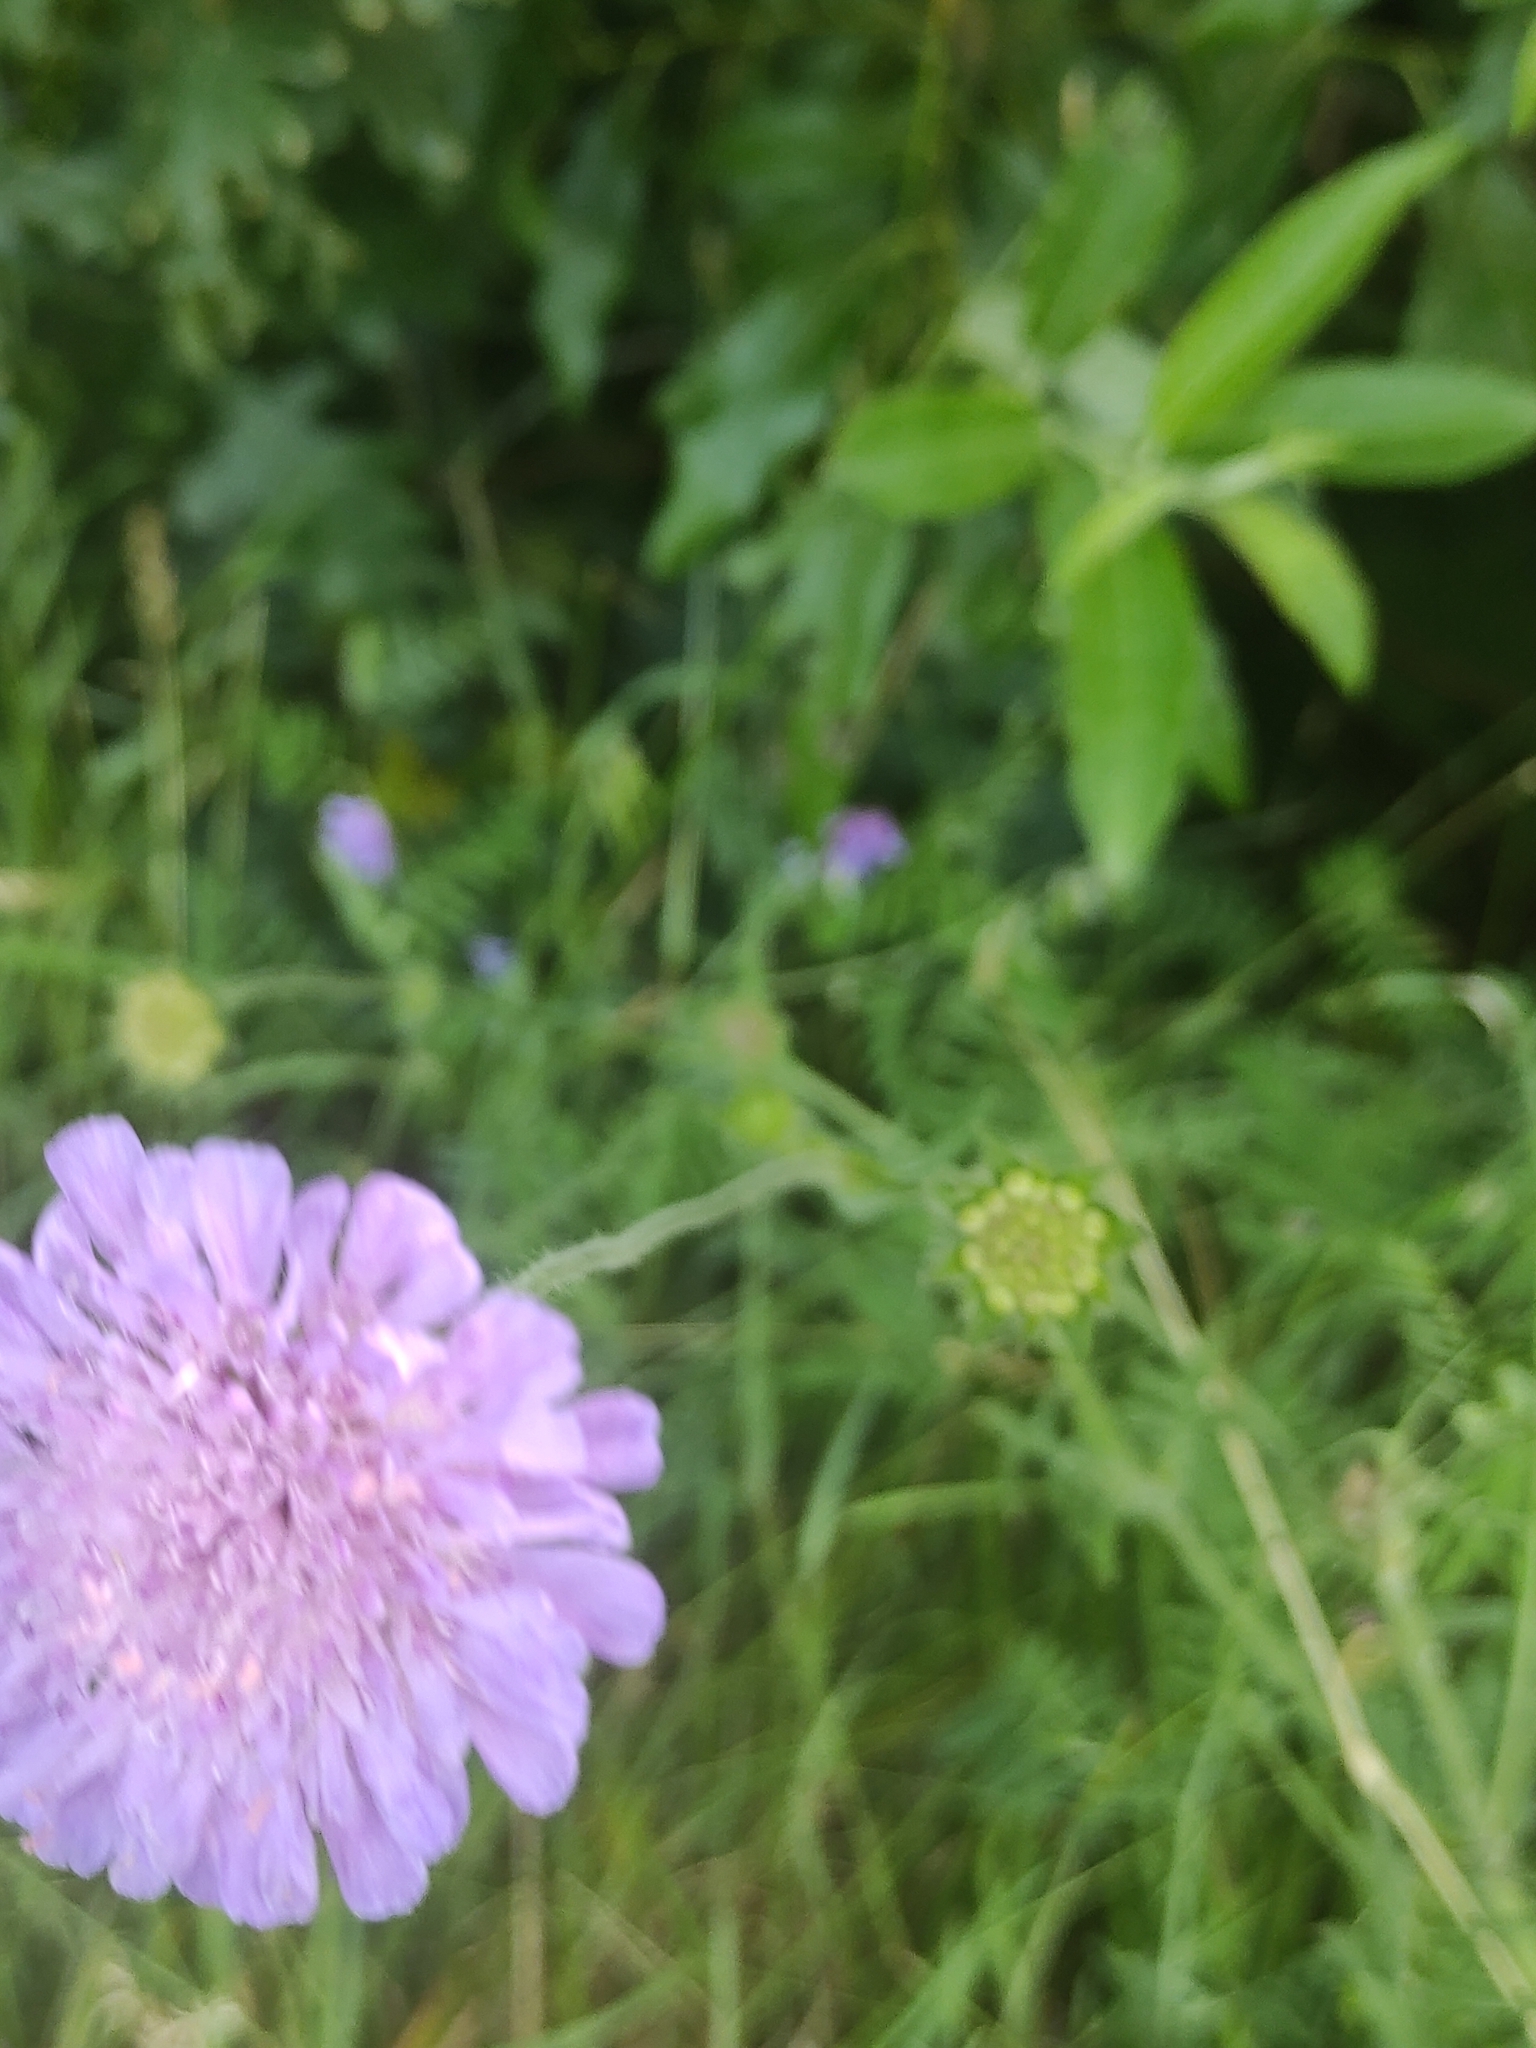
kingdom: Plantae
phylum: Tracheophyta
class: Magnoliopsida
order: Dipsacales
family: Caprifoliaceae
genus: Knautia
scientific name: Knautia arvensis
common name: Field scabiosa
